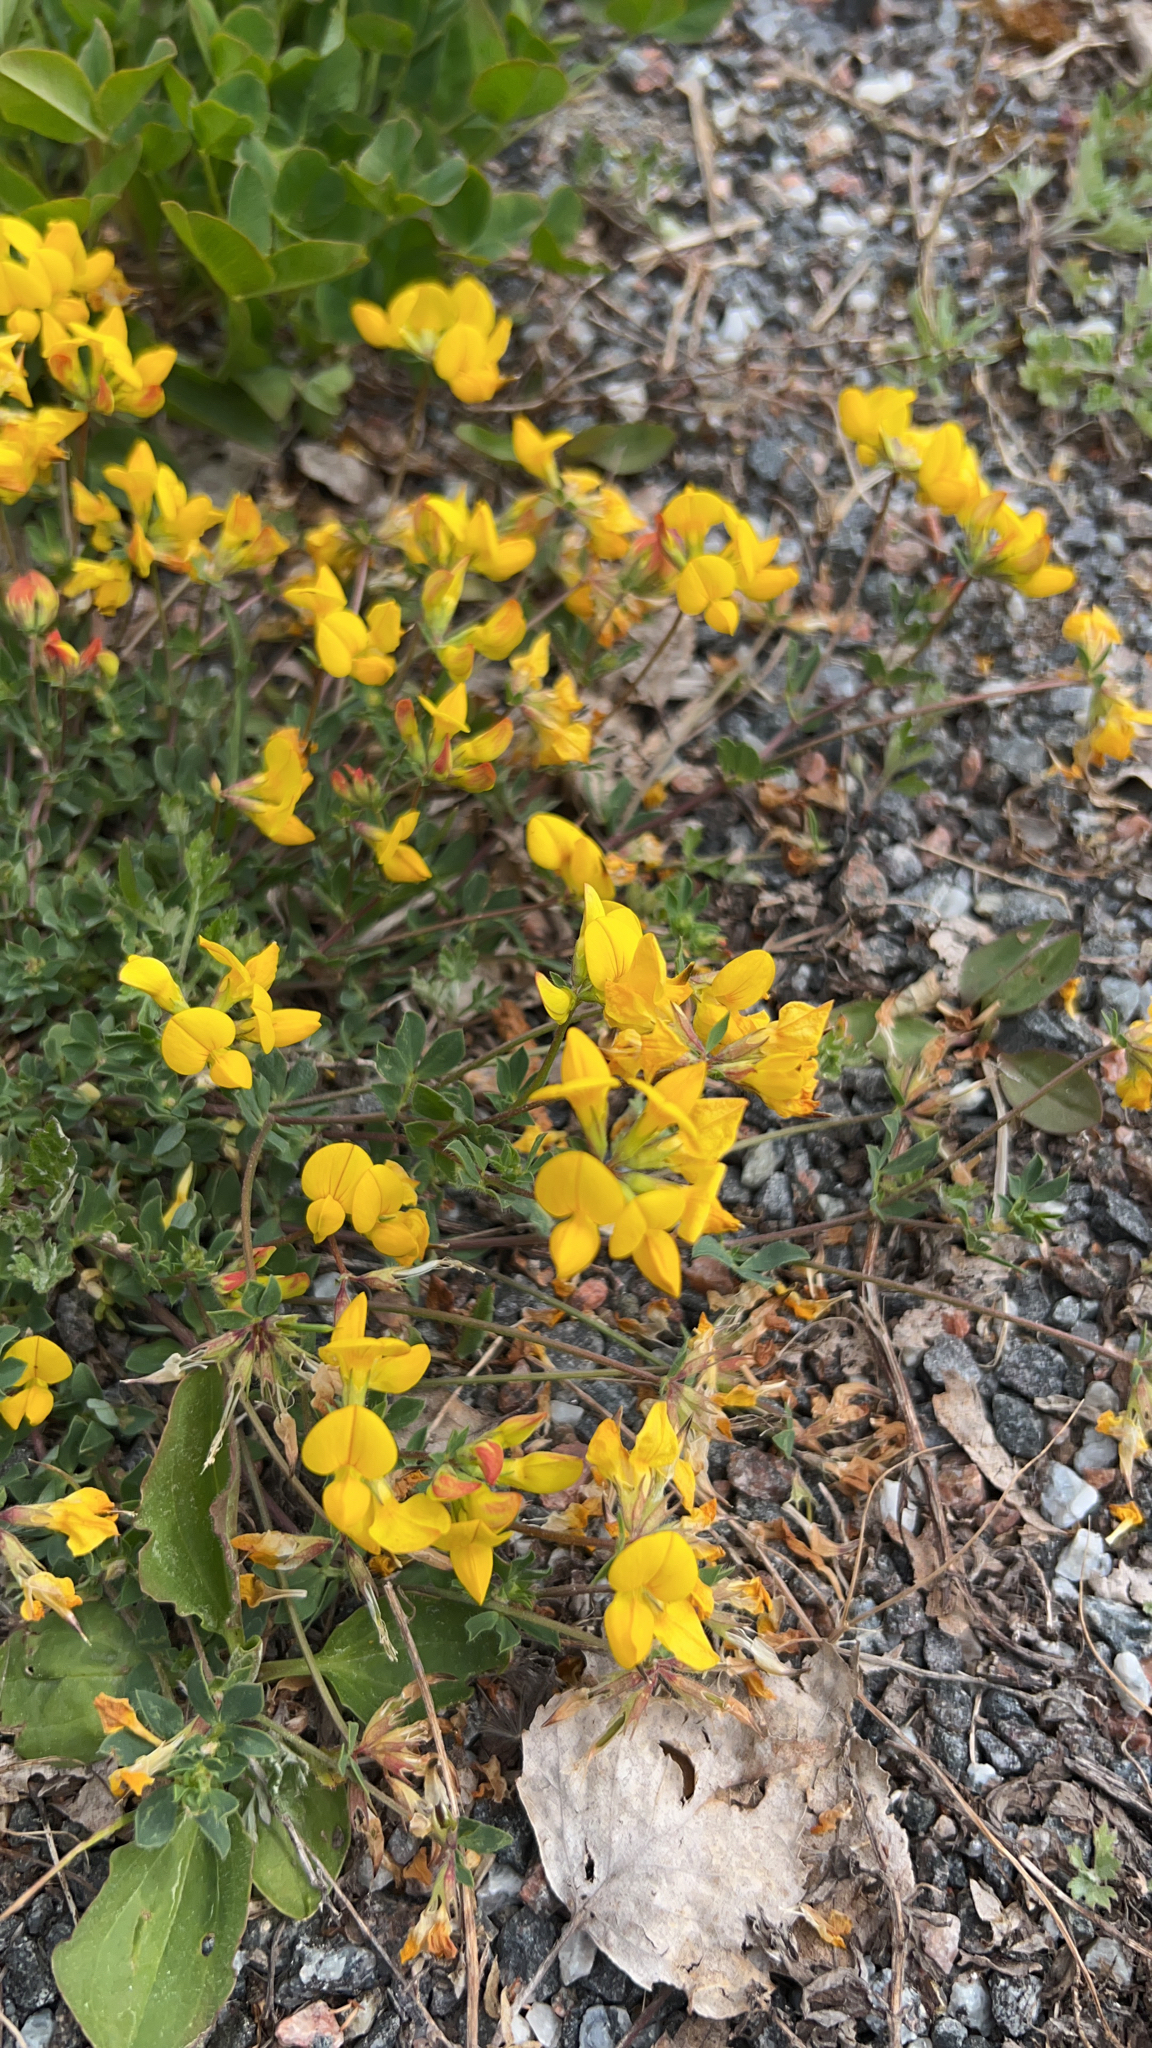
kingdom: Plantae
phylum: Tracheophyta
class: Magnoliopsida
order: Fabales
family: Fabaceae
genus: Lotus
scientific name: Lotus corniculatus
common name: Common bird's-foot-trefoil
